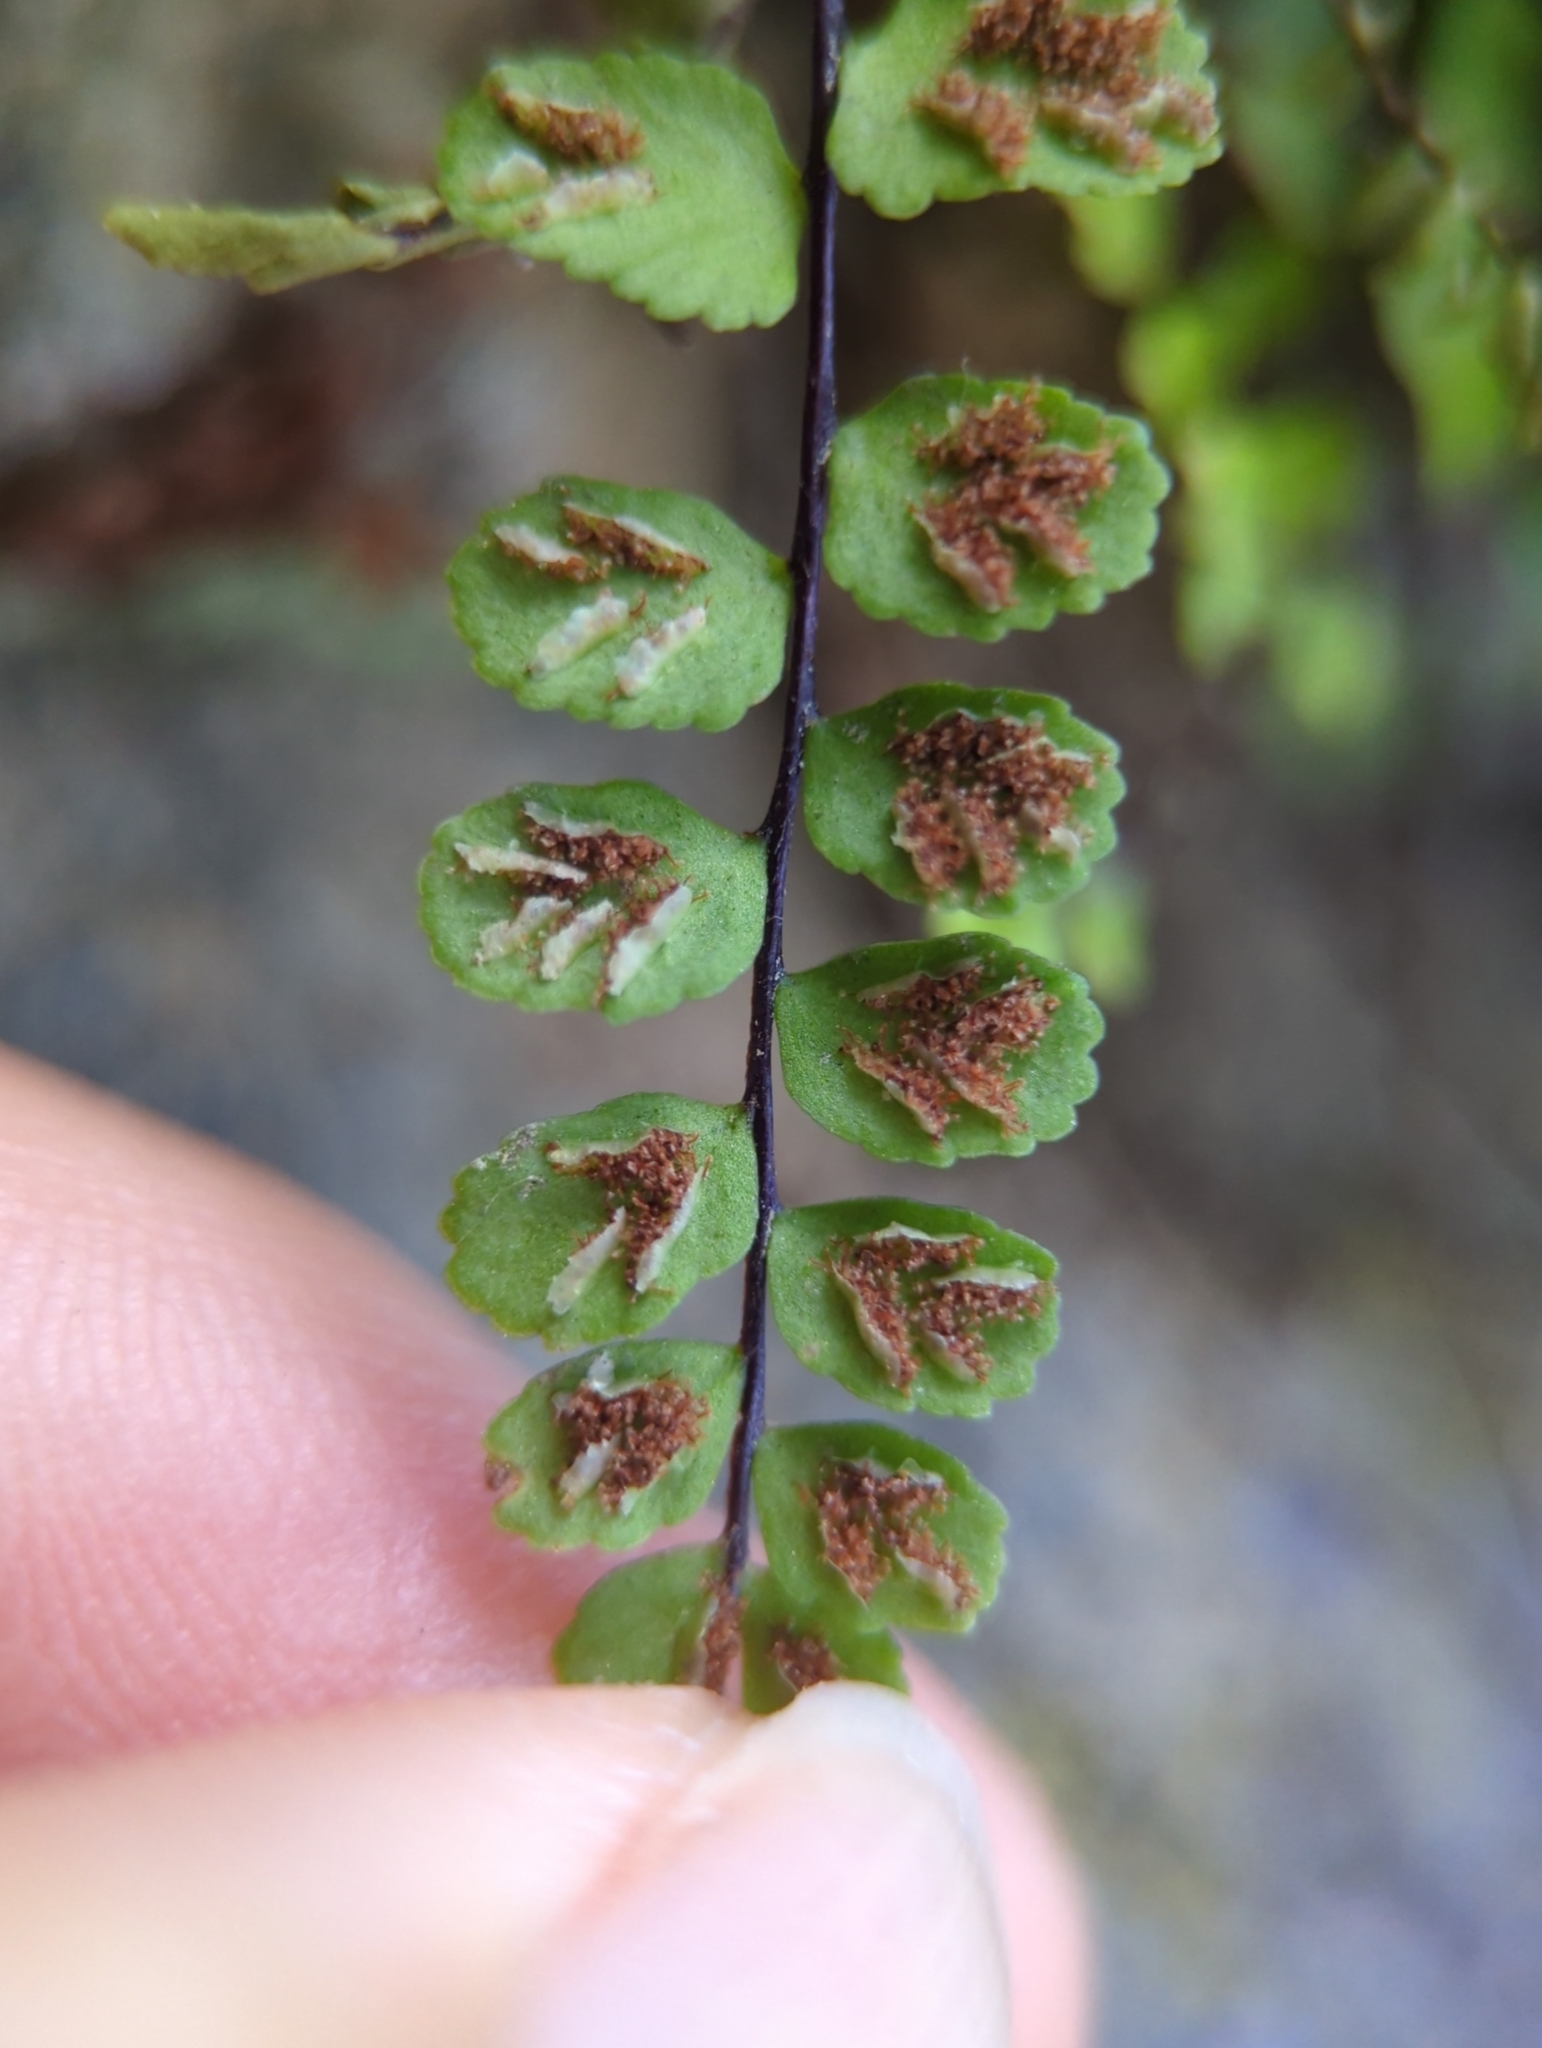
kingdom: Plantae
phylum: Tracheophyta
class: Polypodiopsida
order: Polypodiales
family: Aspleniaceae
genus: Asplenium
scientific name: Asplenium trichomanes
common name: Maidenhair spleenwort
